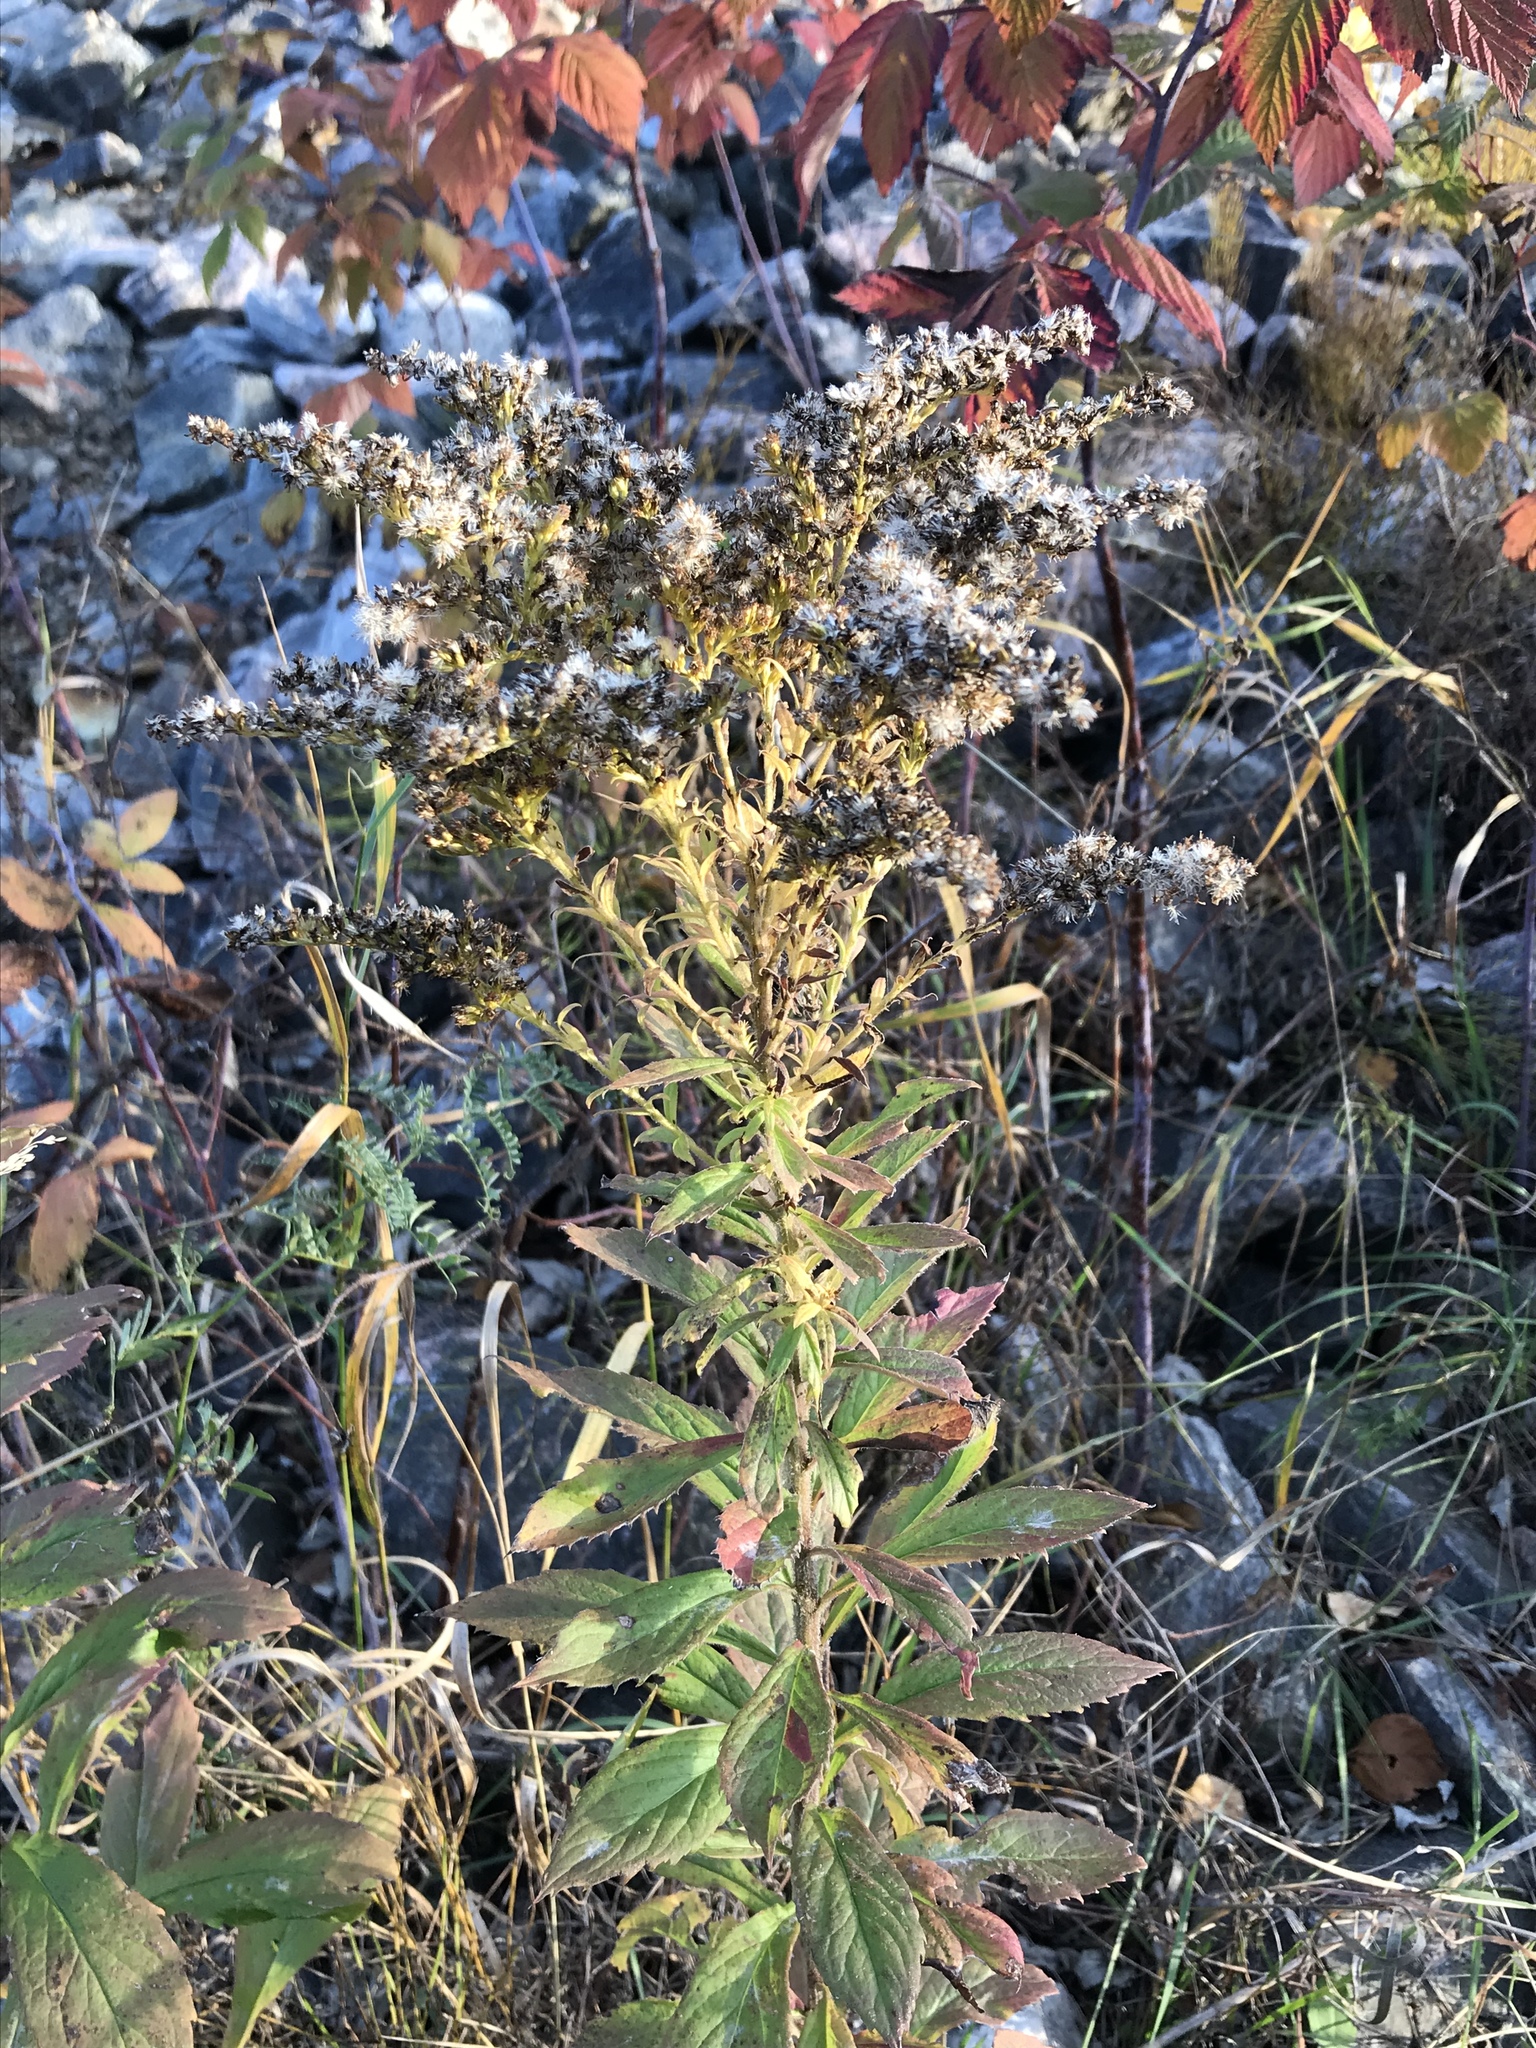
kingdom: Plantae
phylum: Tracheophyta
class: Magnoliopsida
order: Asterales
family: Asteraceae
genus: Solidago
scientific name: Solidago rugosa
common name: Rough-stemmed goldenrod
